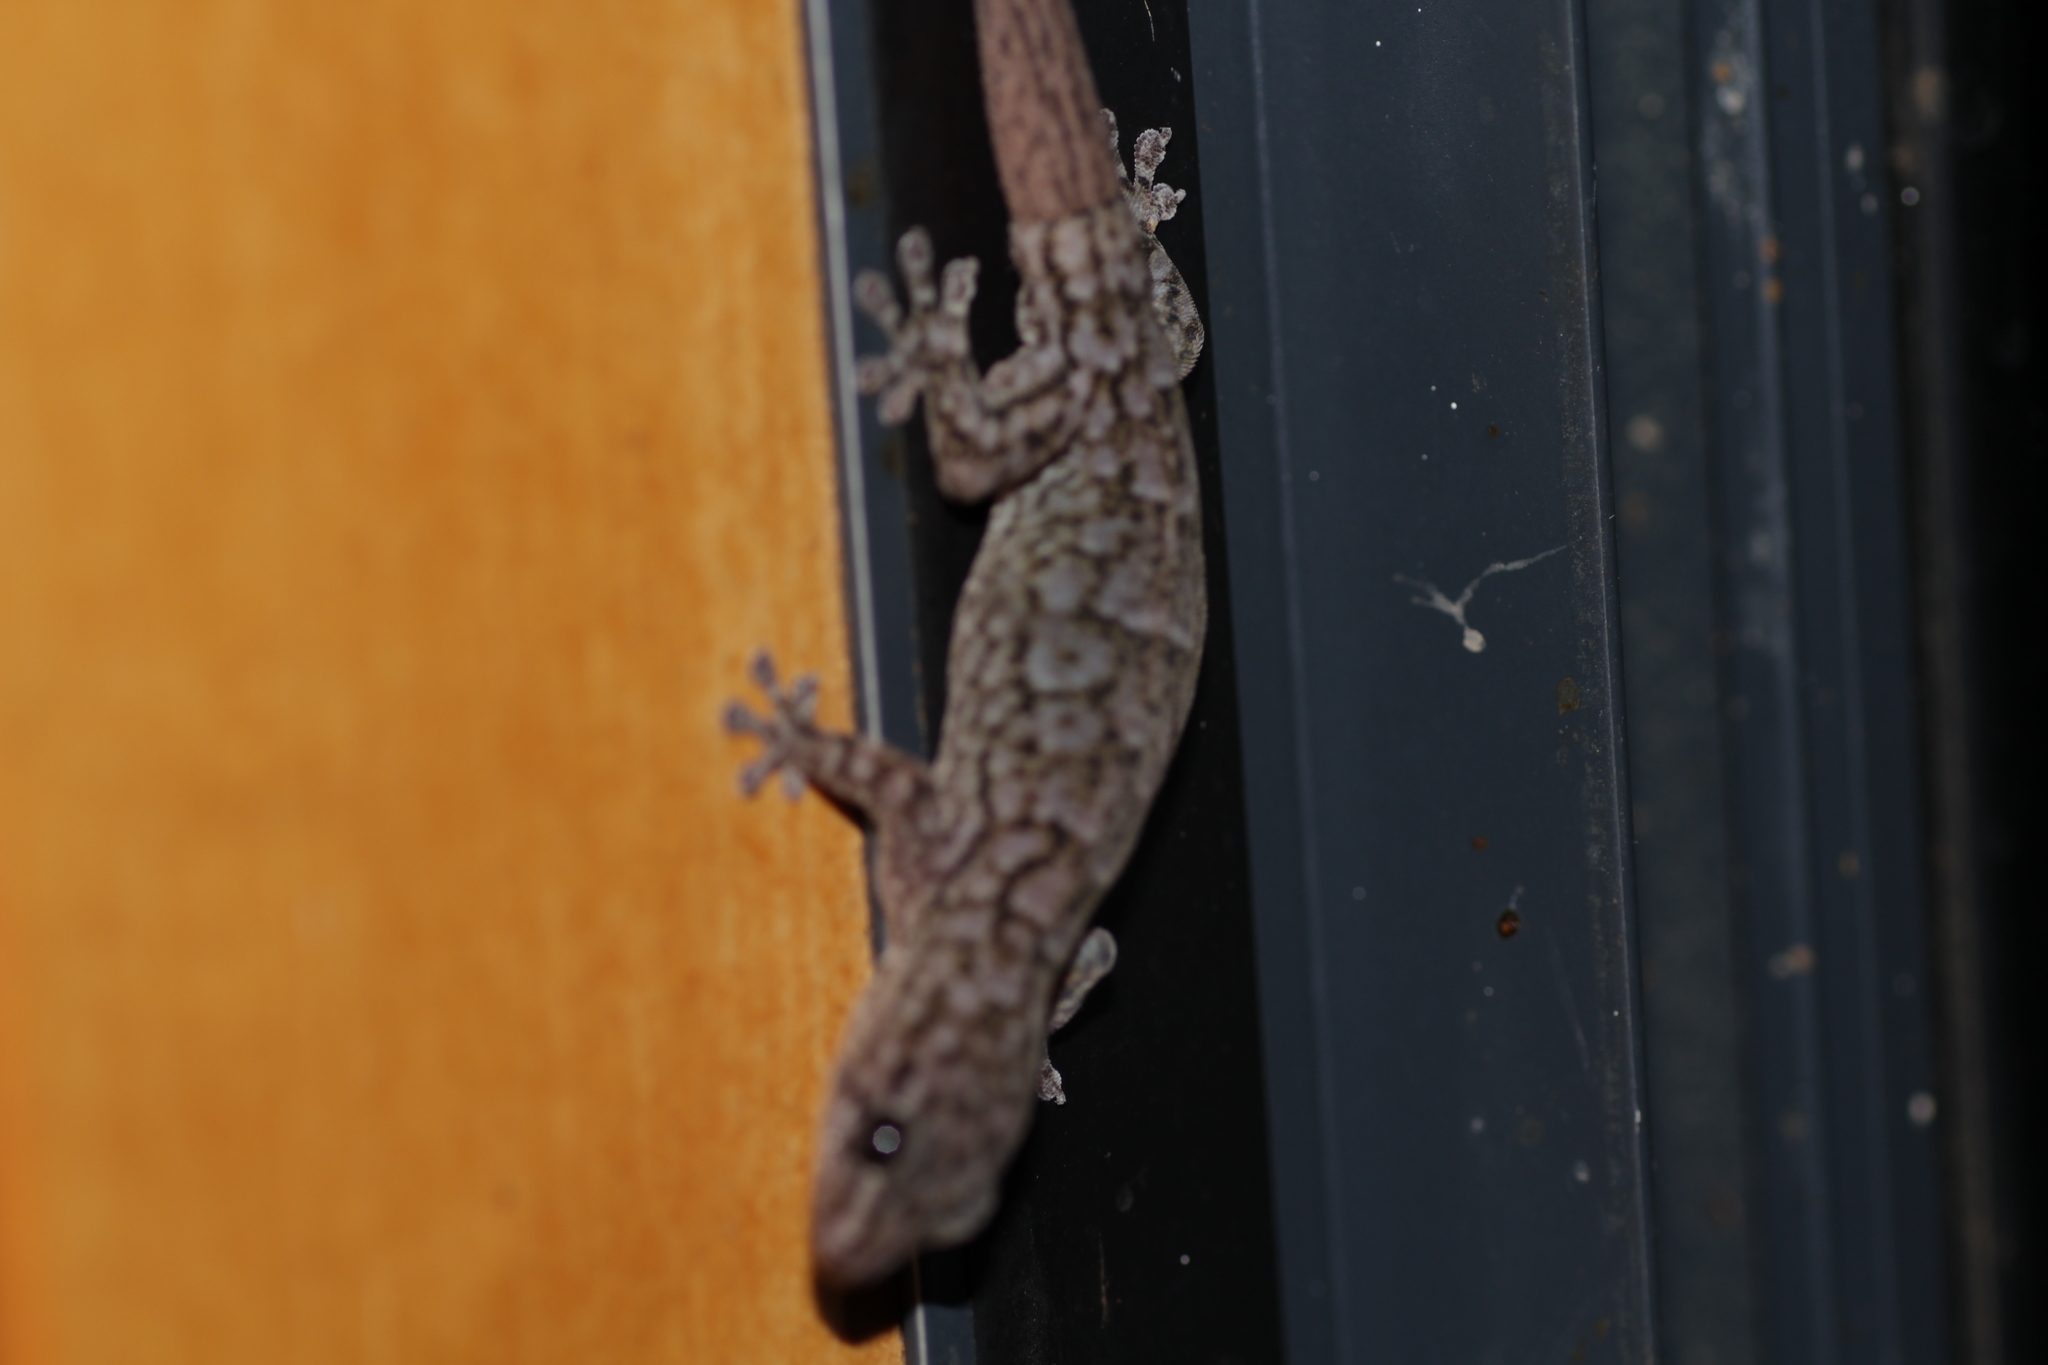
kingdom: Animalia
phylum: Chordata
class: Squamata
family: Gekkonidae
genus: Gehyra
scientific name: Gehyra variegata
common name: Tree dtella
